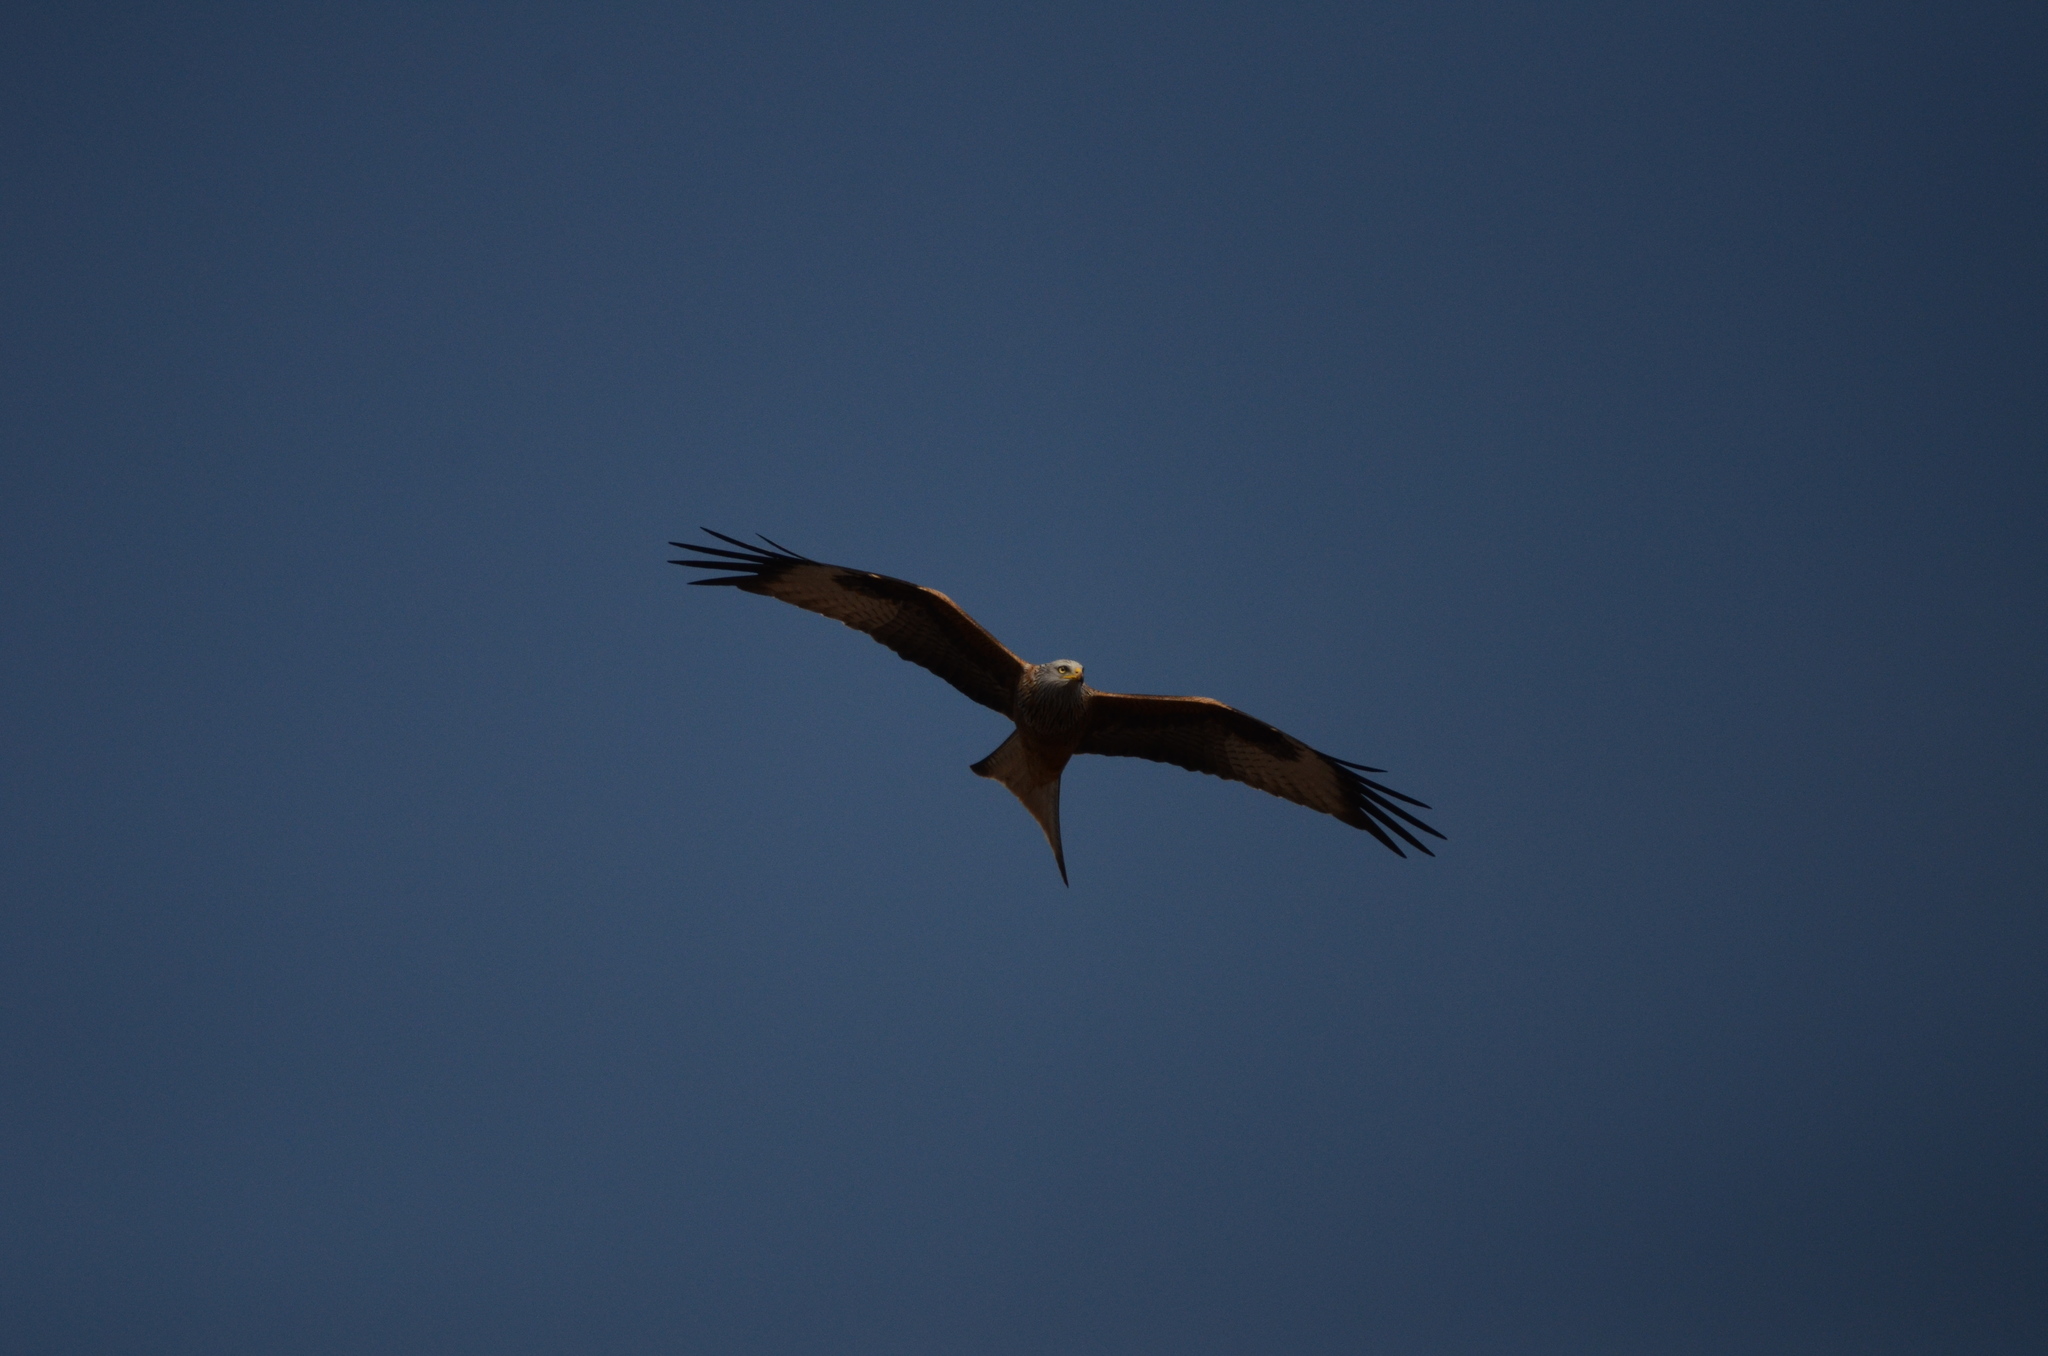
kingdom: Animalia
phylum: Chordata
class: Aves
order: Accipitriformes
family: Accipitridae
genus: Milvus
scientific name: Milvus milvus
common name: Red kite
